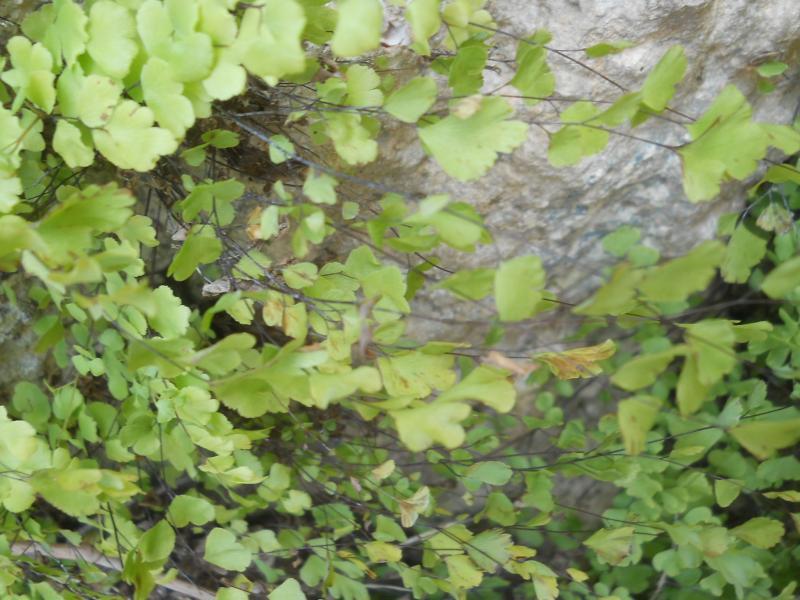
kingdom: Plantae
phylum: Tracheophyta
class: Polypodiopsida
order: Polypodiales
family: Pteridaceae
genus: Adiantum
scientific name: Adiantum capillus-veneris
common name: Maidenhair fern
